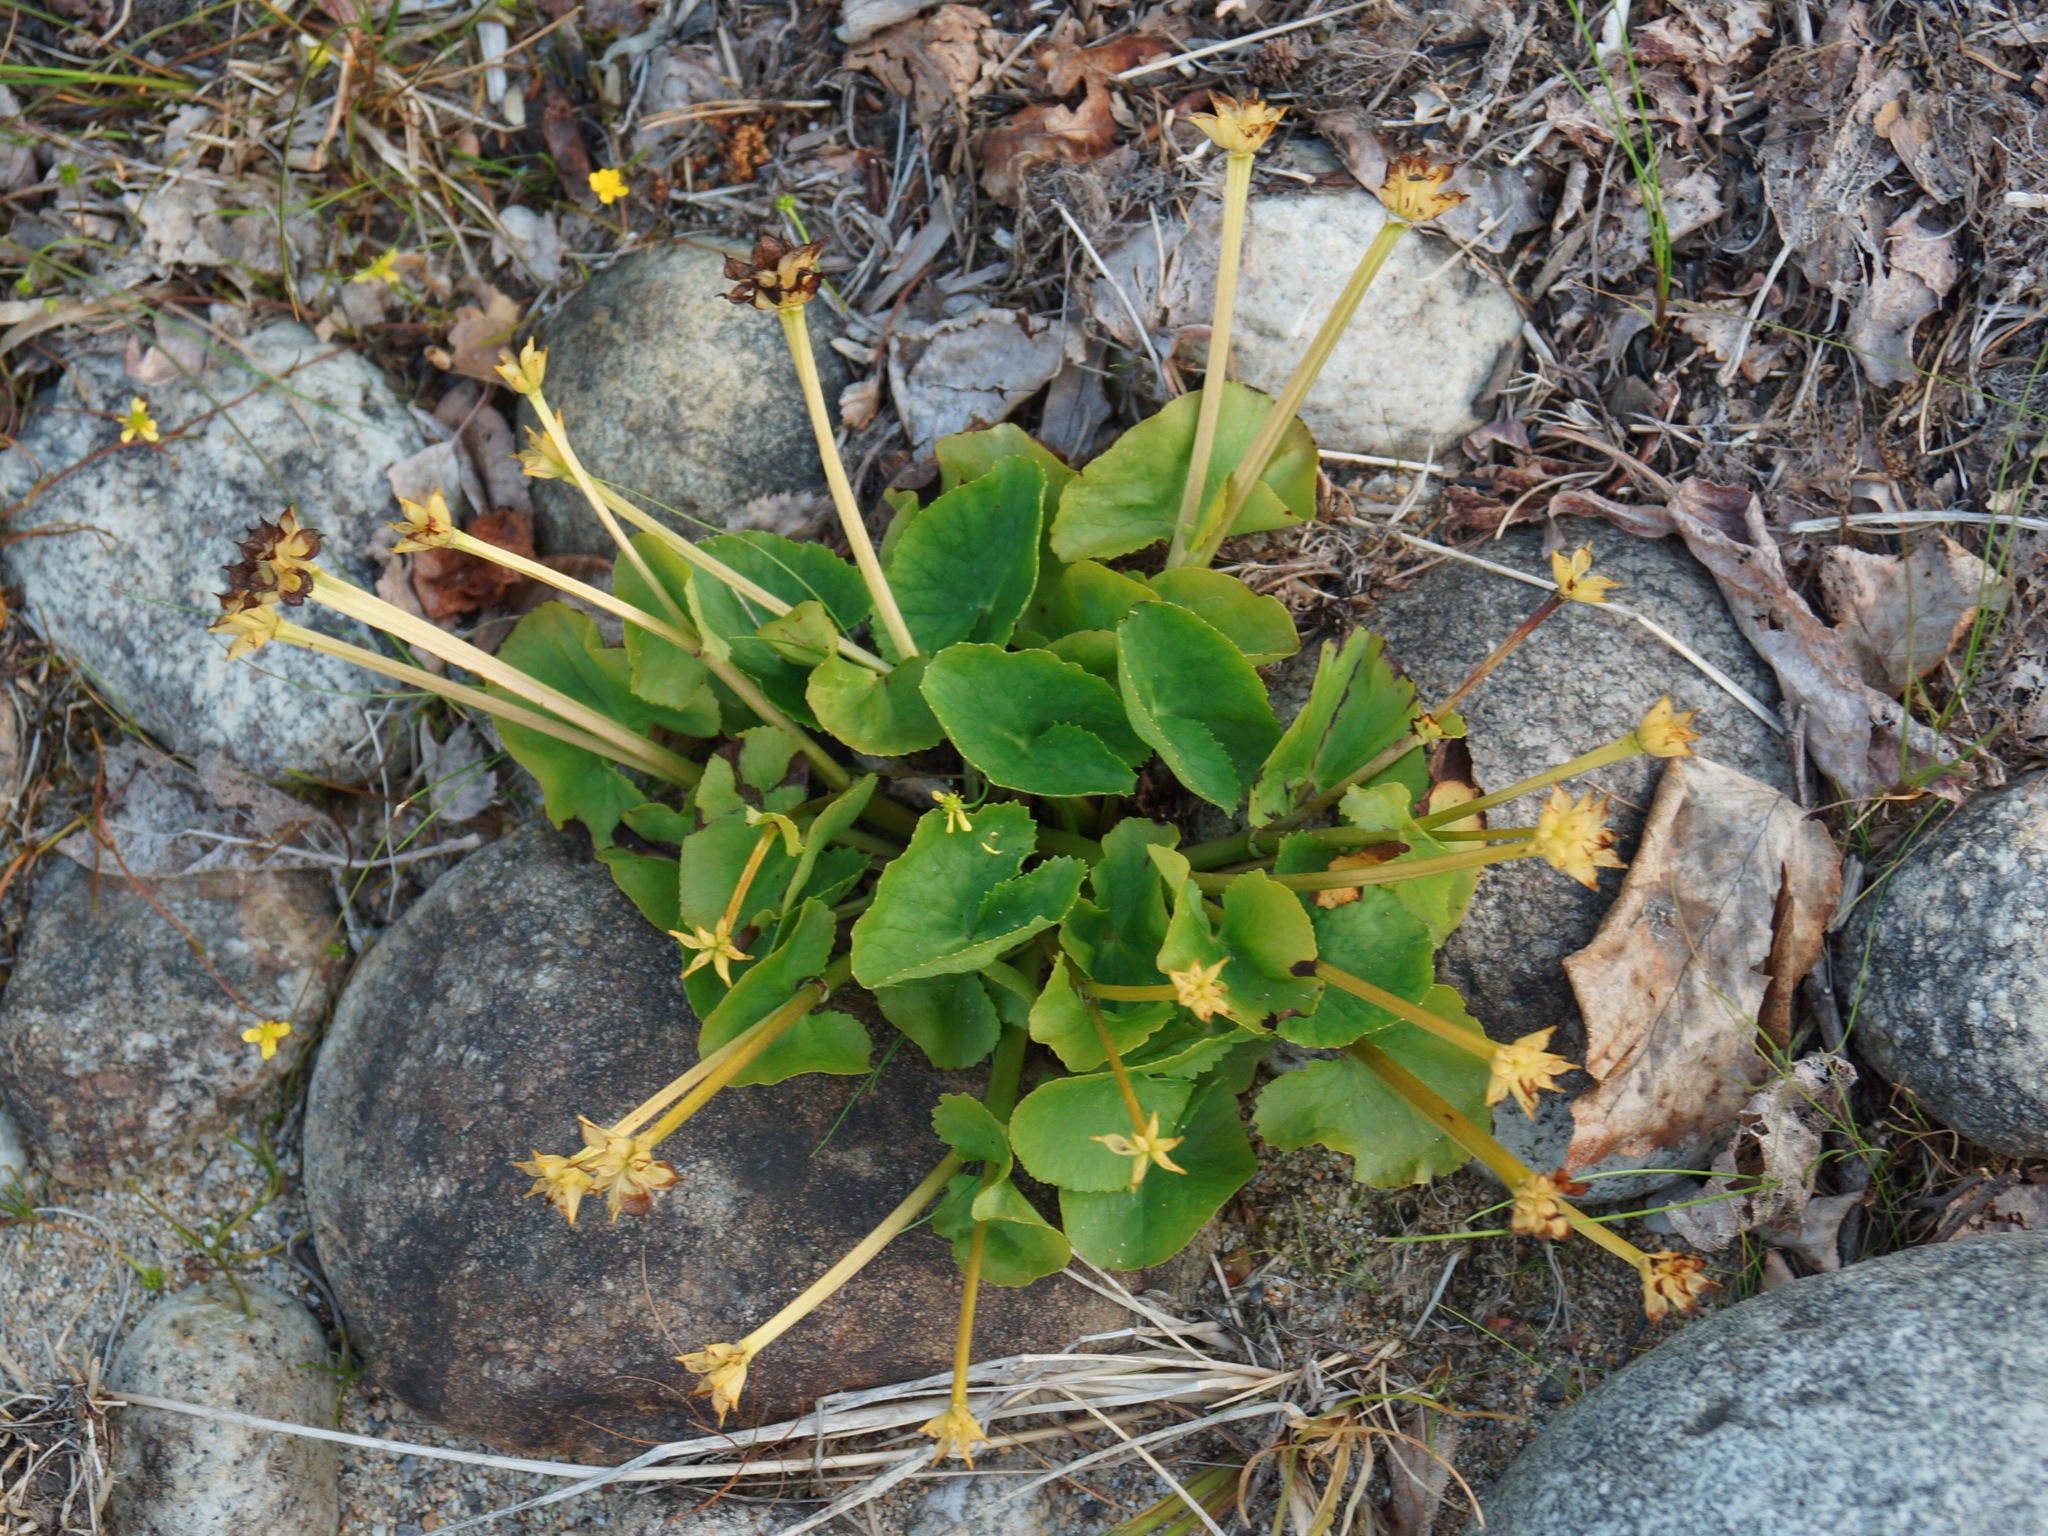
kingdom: Plantae
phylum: Tracheophyta
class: Magnoliopsida
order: Ranunculales
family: Ranunculaceae
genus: Caltha
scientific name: Caltha palustris
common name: Marsh marigold
